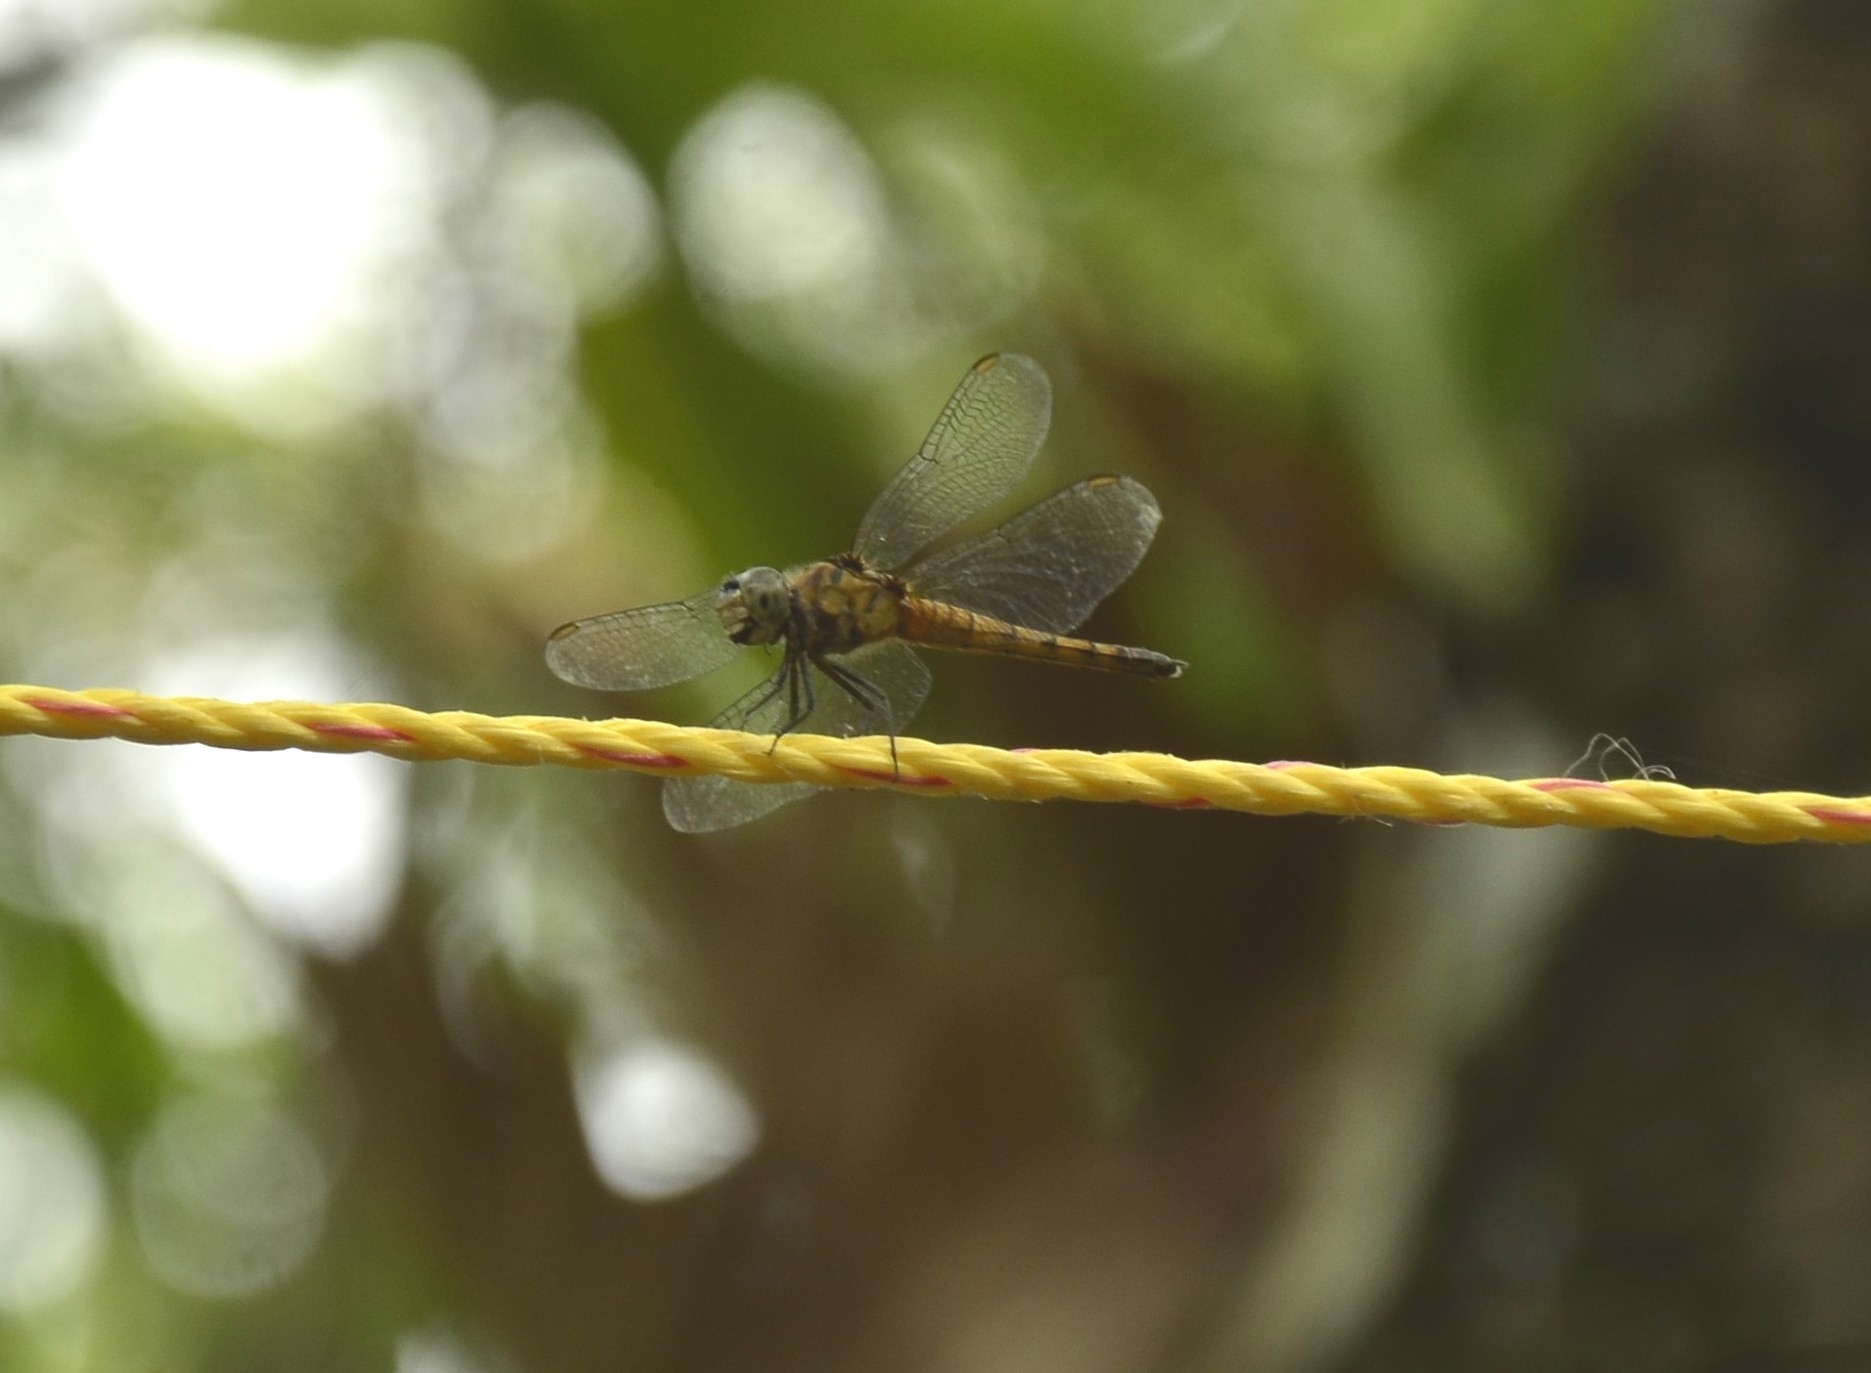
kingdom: Animalia
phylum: Arthropoda
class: Insecta
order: Odonata
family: Libellulidae
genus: Brachydiplax
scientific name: Brachydiplax chalybea
